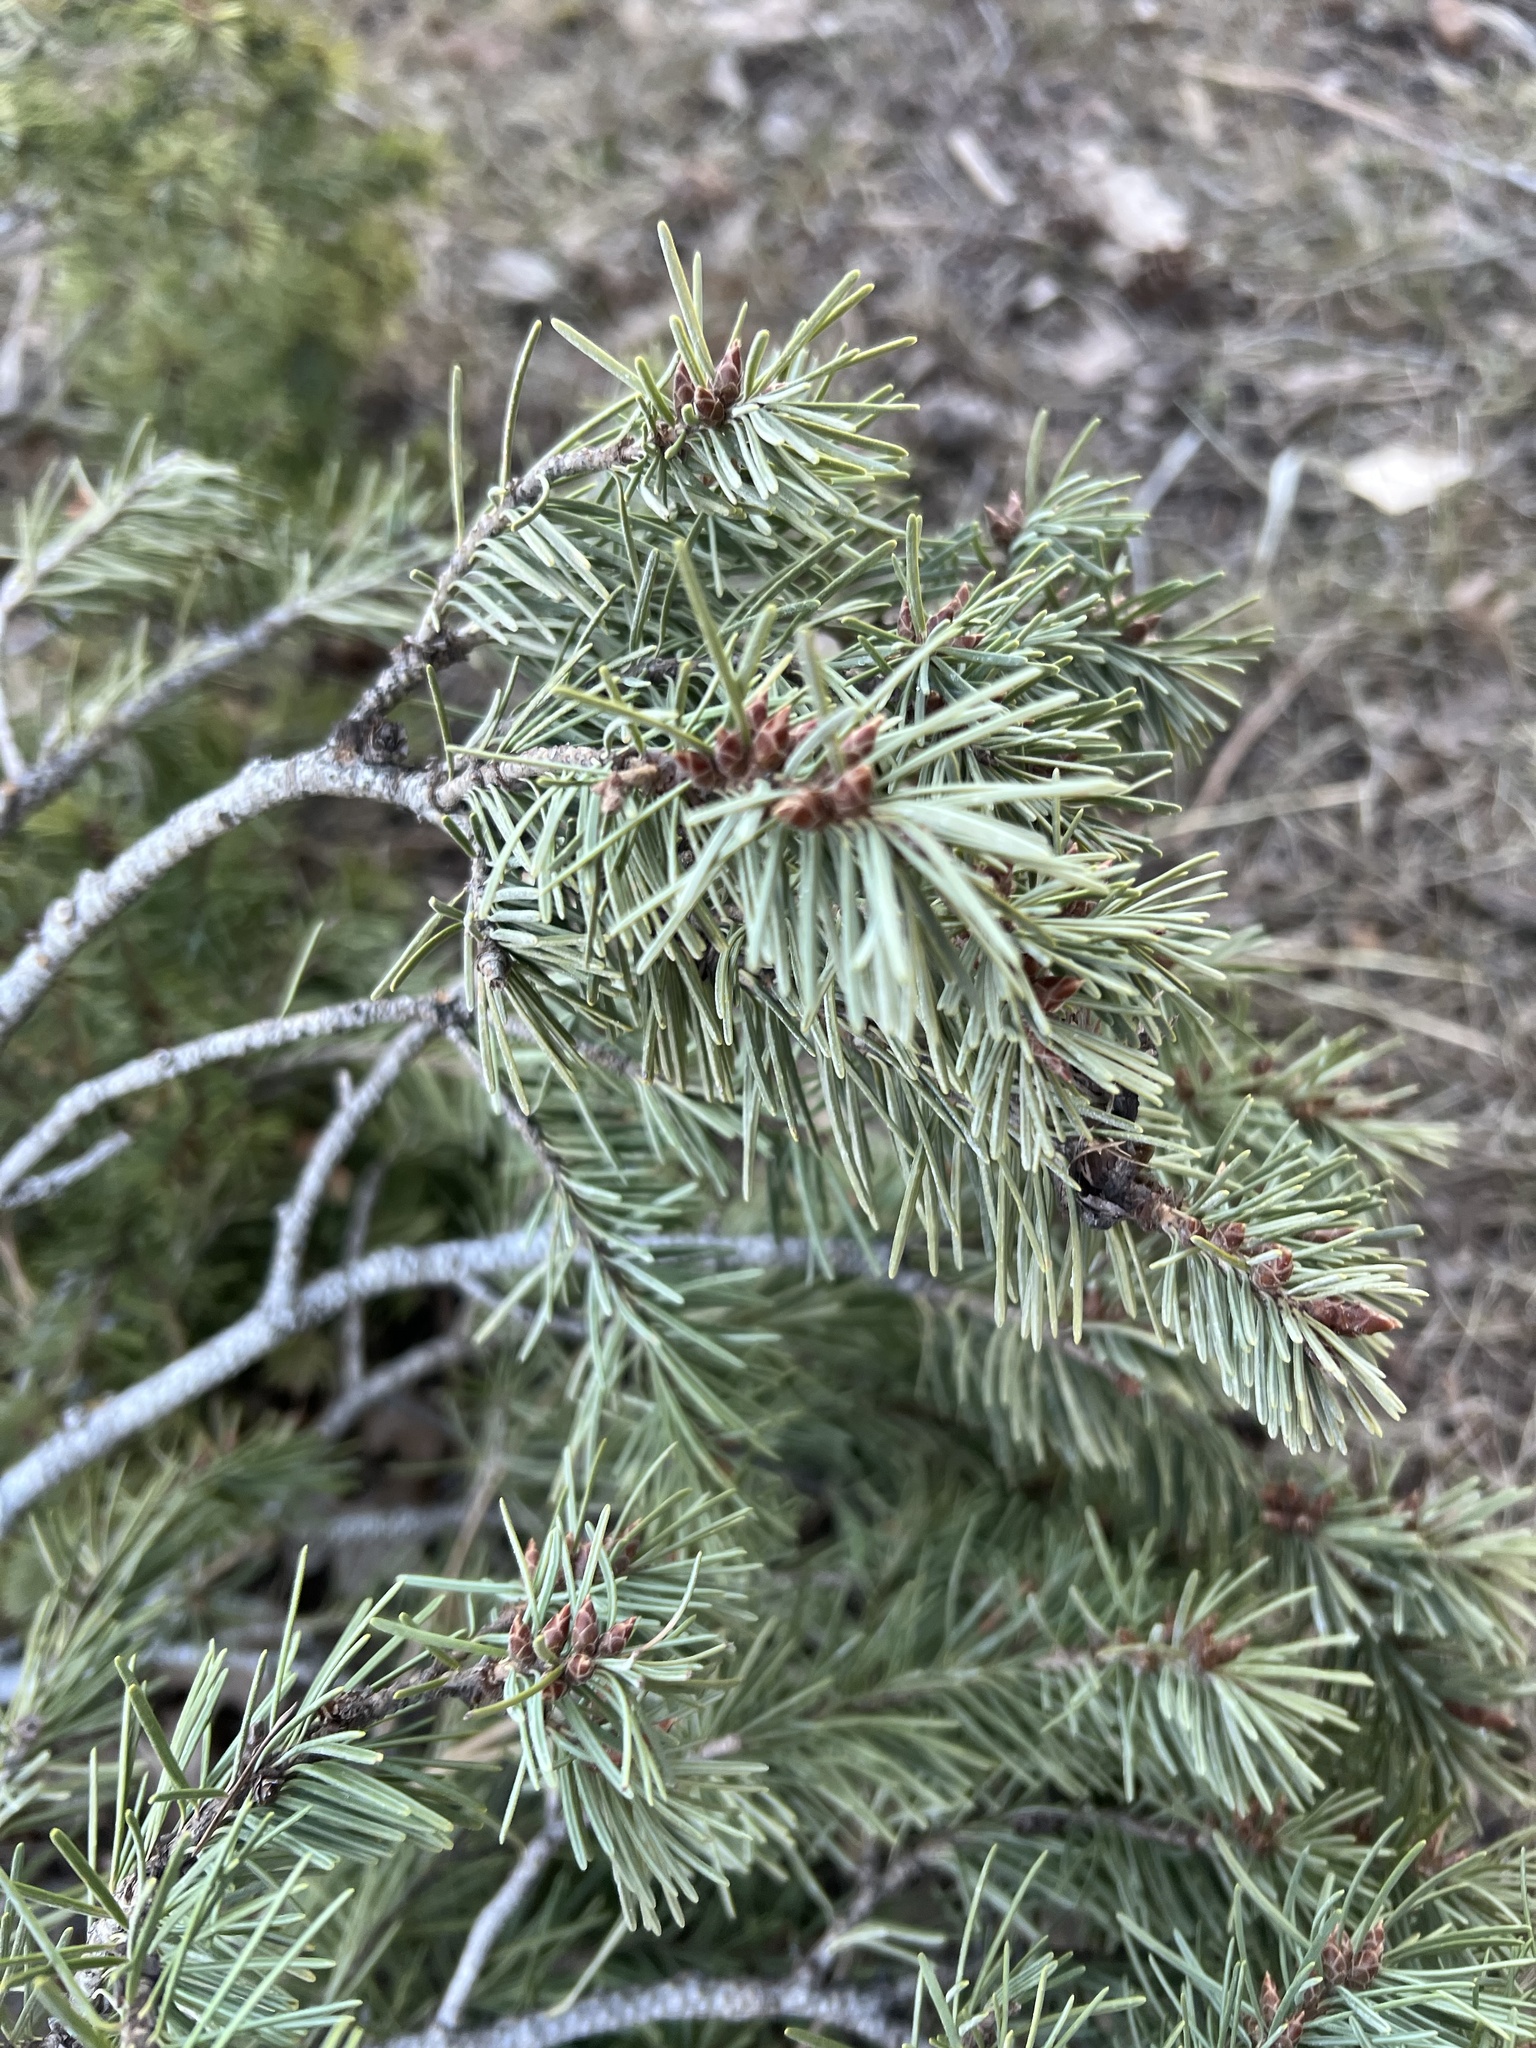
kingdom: Plantae
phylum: Tracheophyta
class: Pinopsida
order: Pinales
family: Pinaceae
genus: Pseudotsuga
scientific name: Pseudotsuga menziesii
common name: Douglas fir
